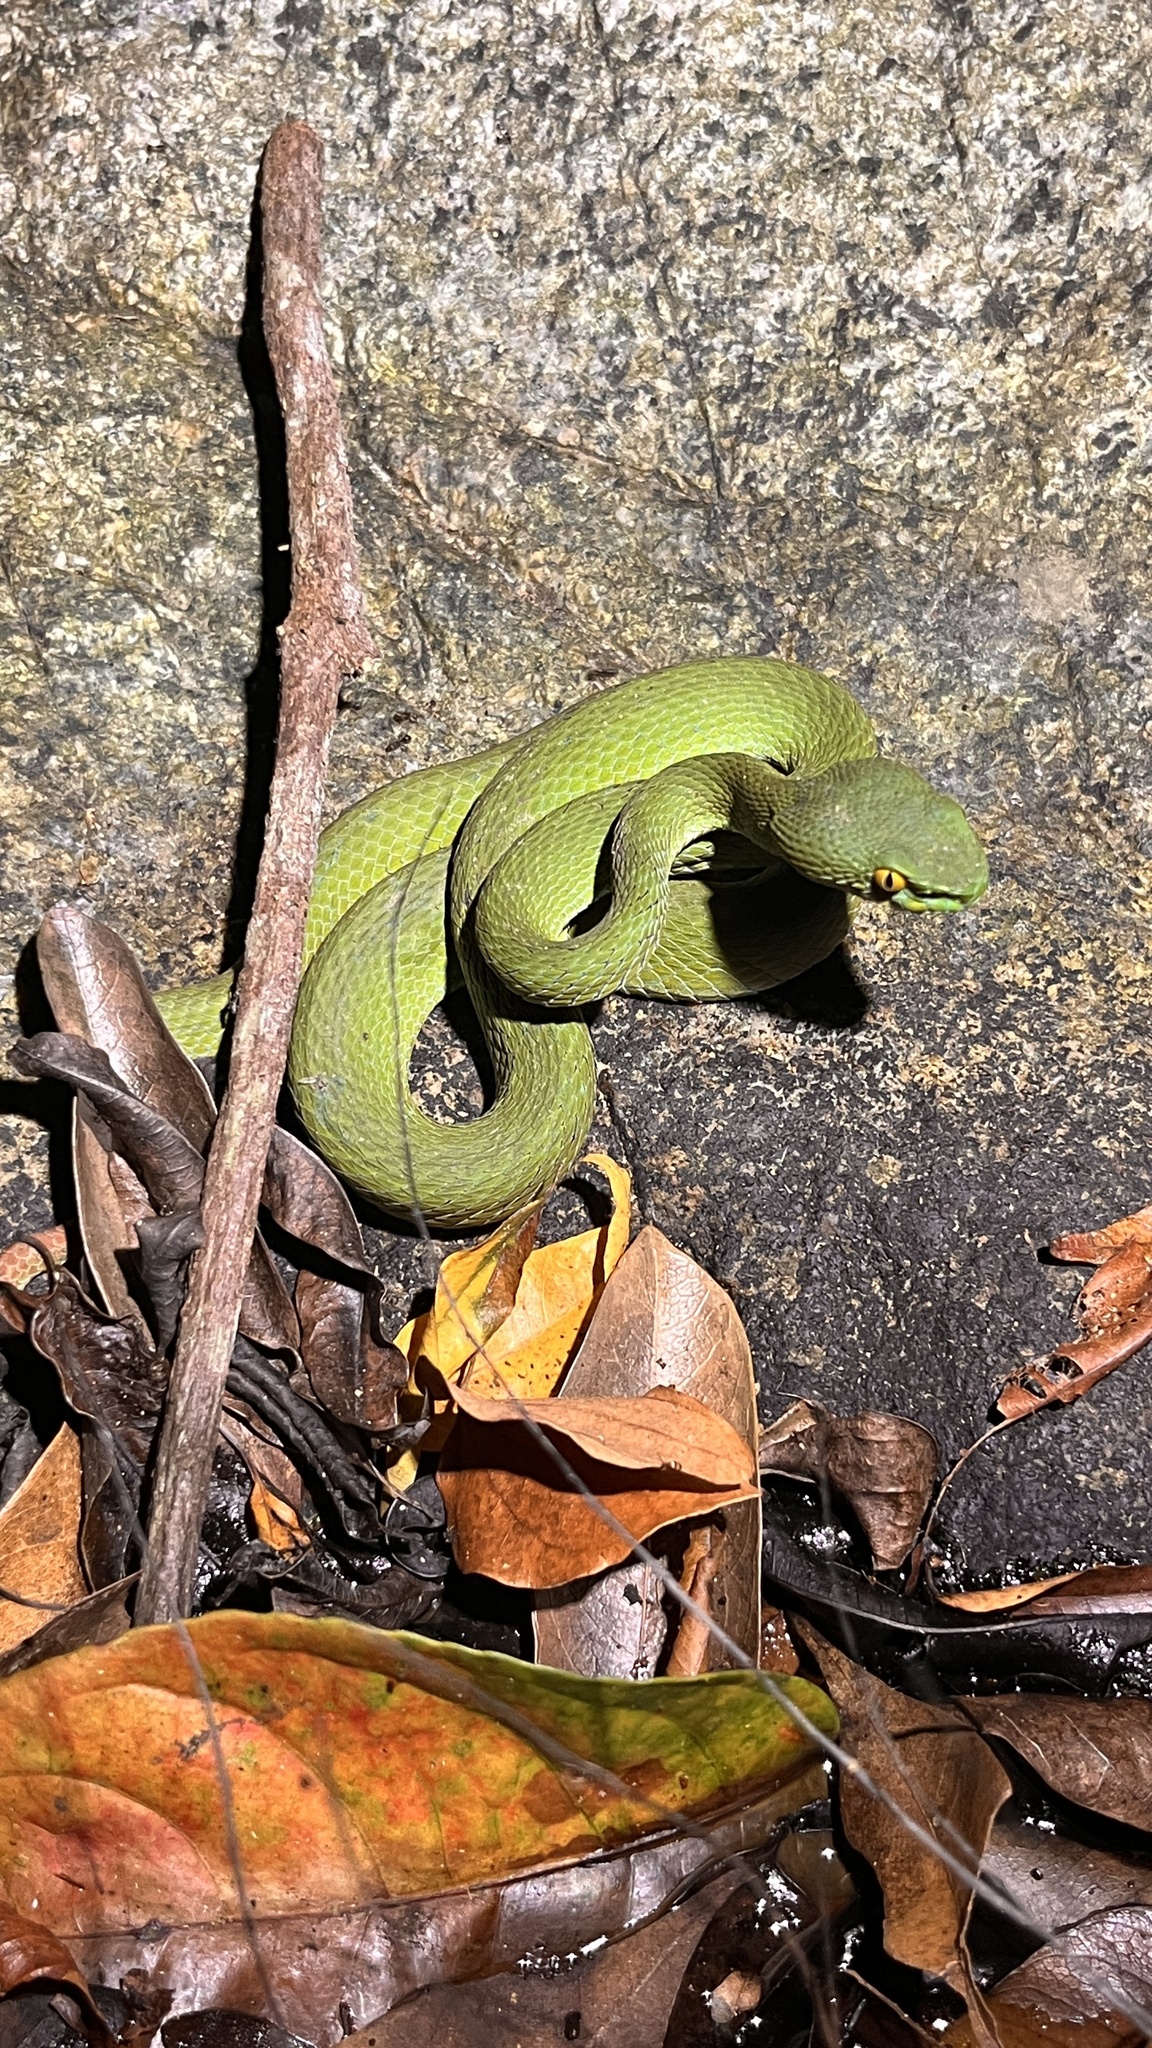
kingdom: Animalia
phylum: Chordata
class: Squamata
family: Viperidae
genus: Trimeresurus
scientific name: Trimeresurus macrops
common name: Kramer's pit viper
